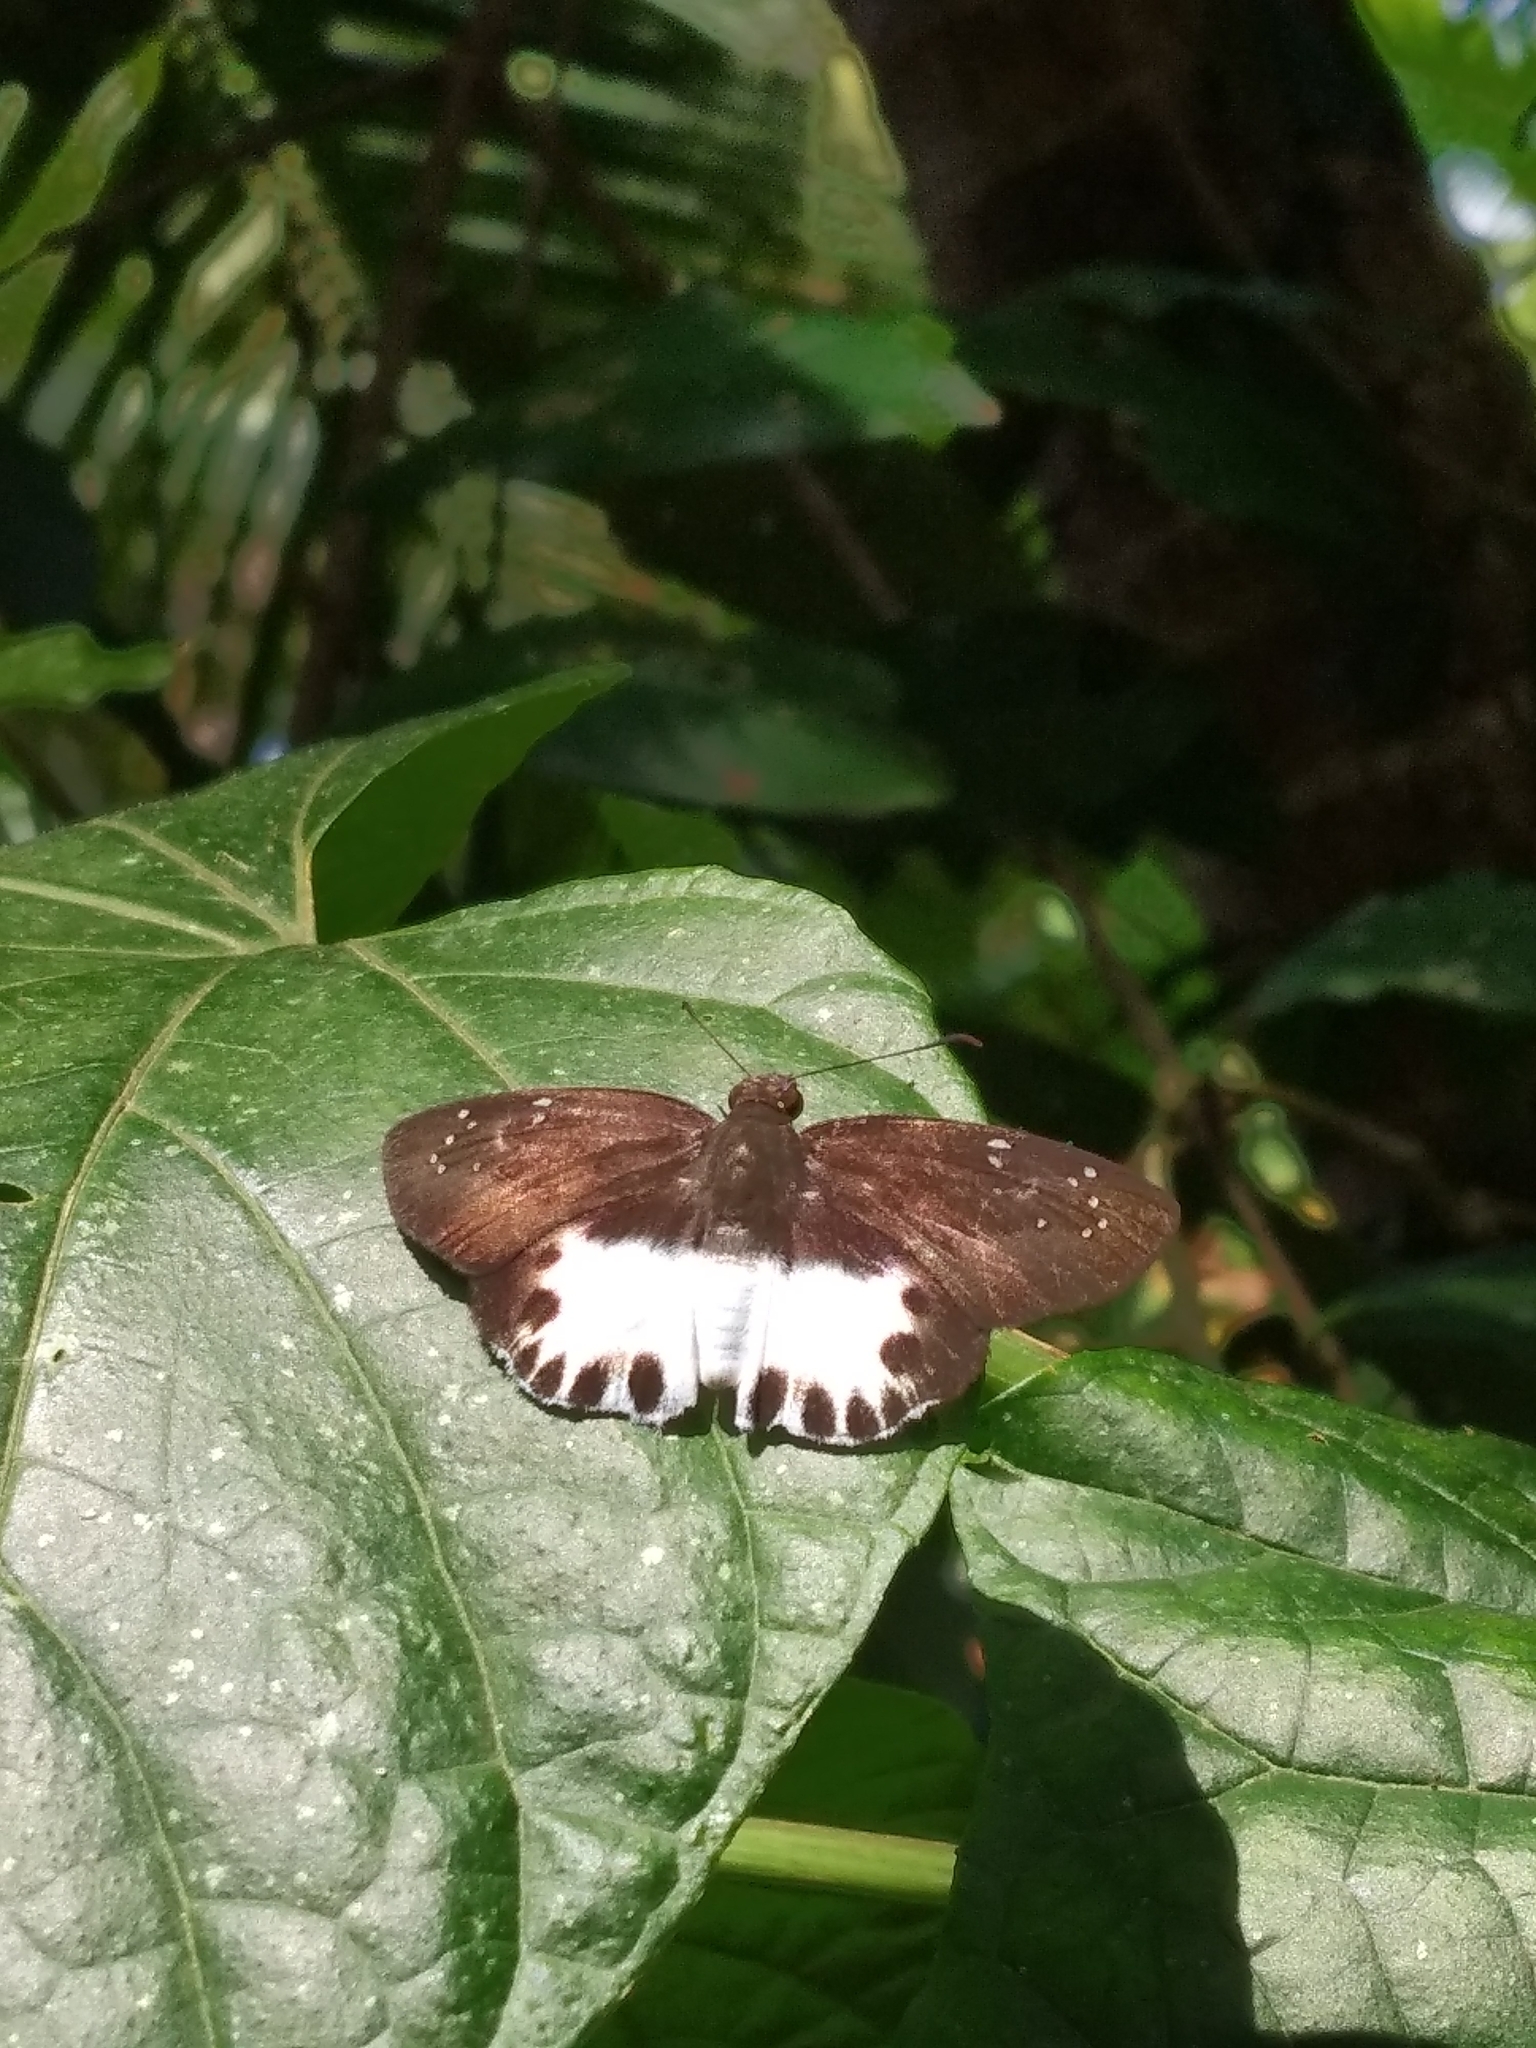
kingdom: Animalia
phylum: Arthropoda
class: Insecta
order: Lepidoptera
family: Hesperiidae
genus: Tagiades
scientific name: Tagiades litigiosa
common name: Water snow flat
